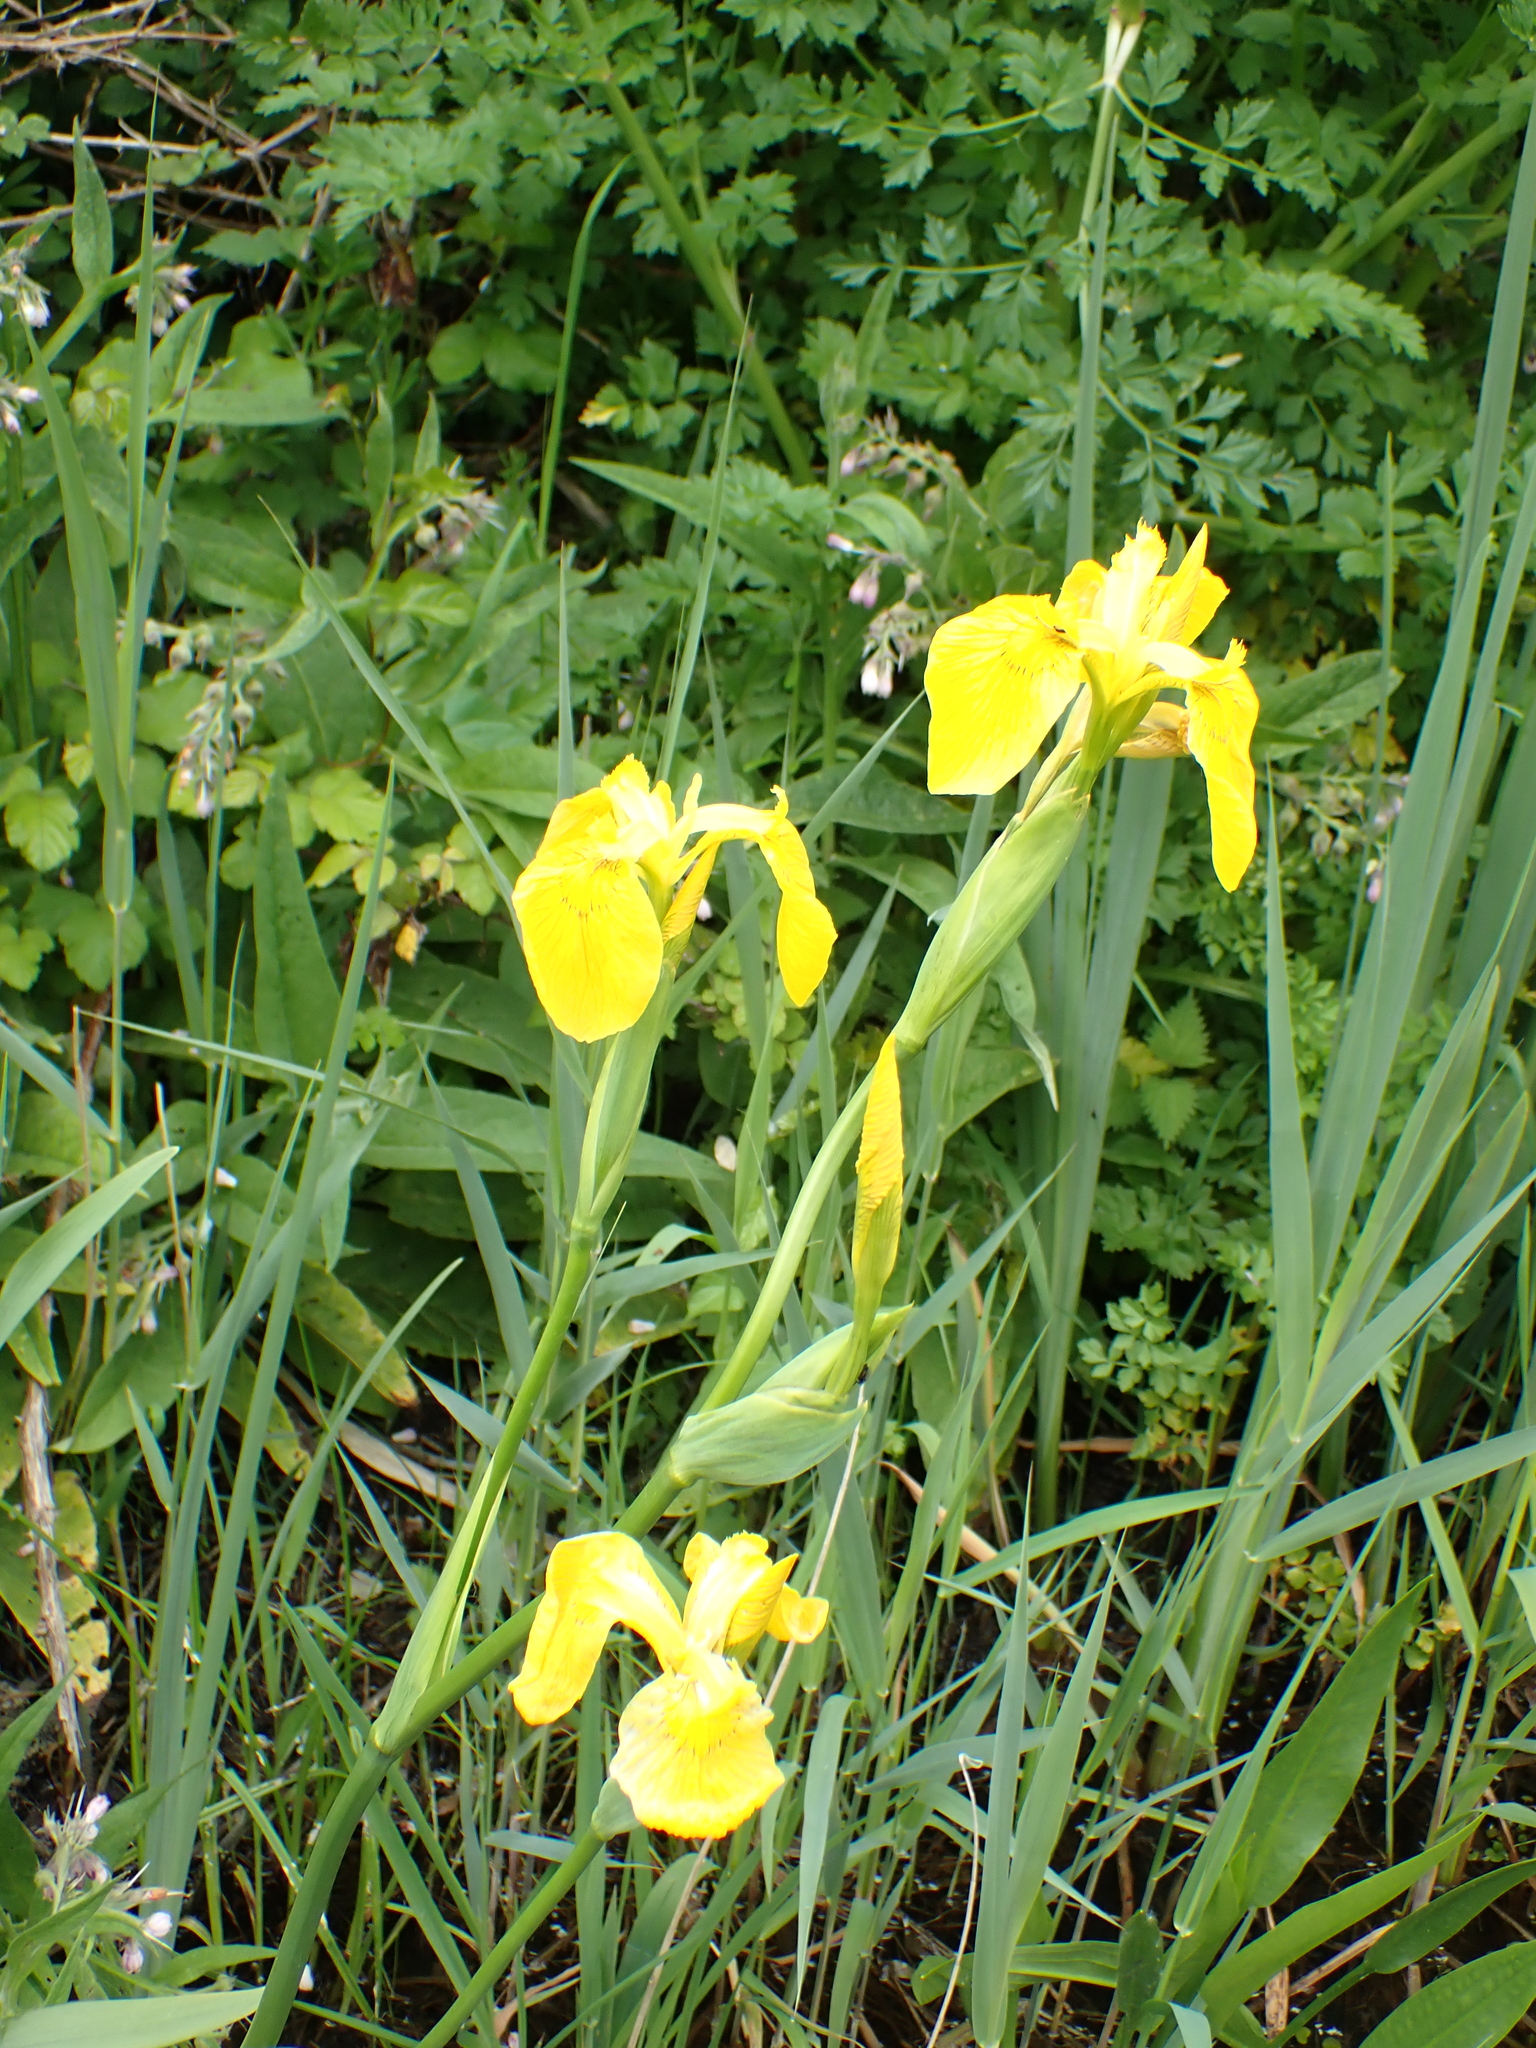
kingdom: Plantae
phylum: Tracheophyta
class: Liliopsida
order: Asparagales
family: Iridaceae
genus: Iris
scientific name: Iris pseudacorus
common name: Yellow flag
